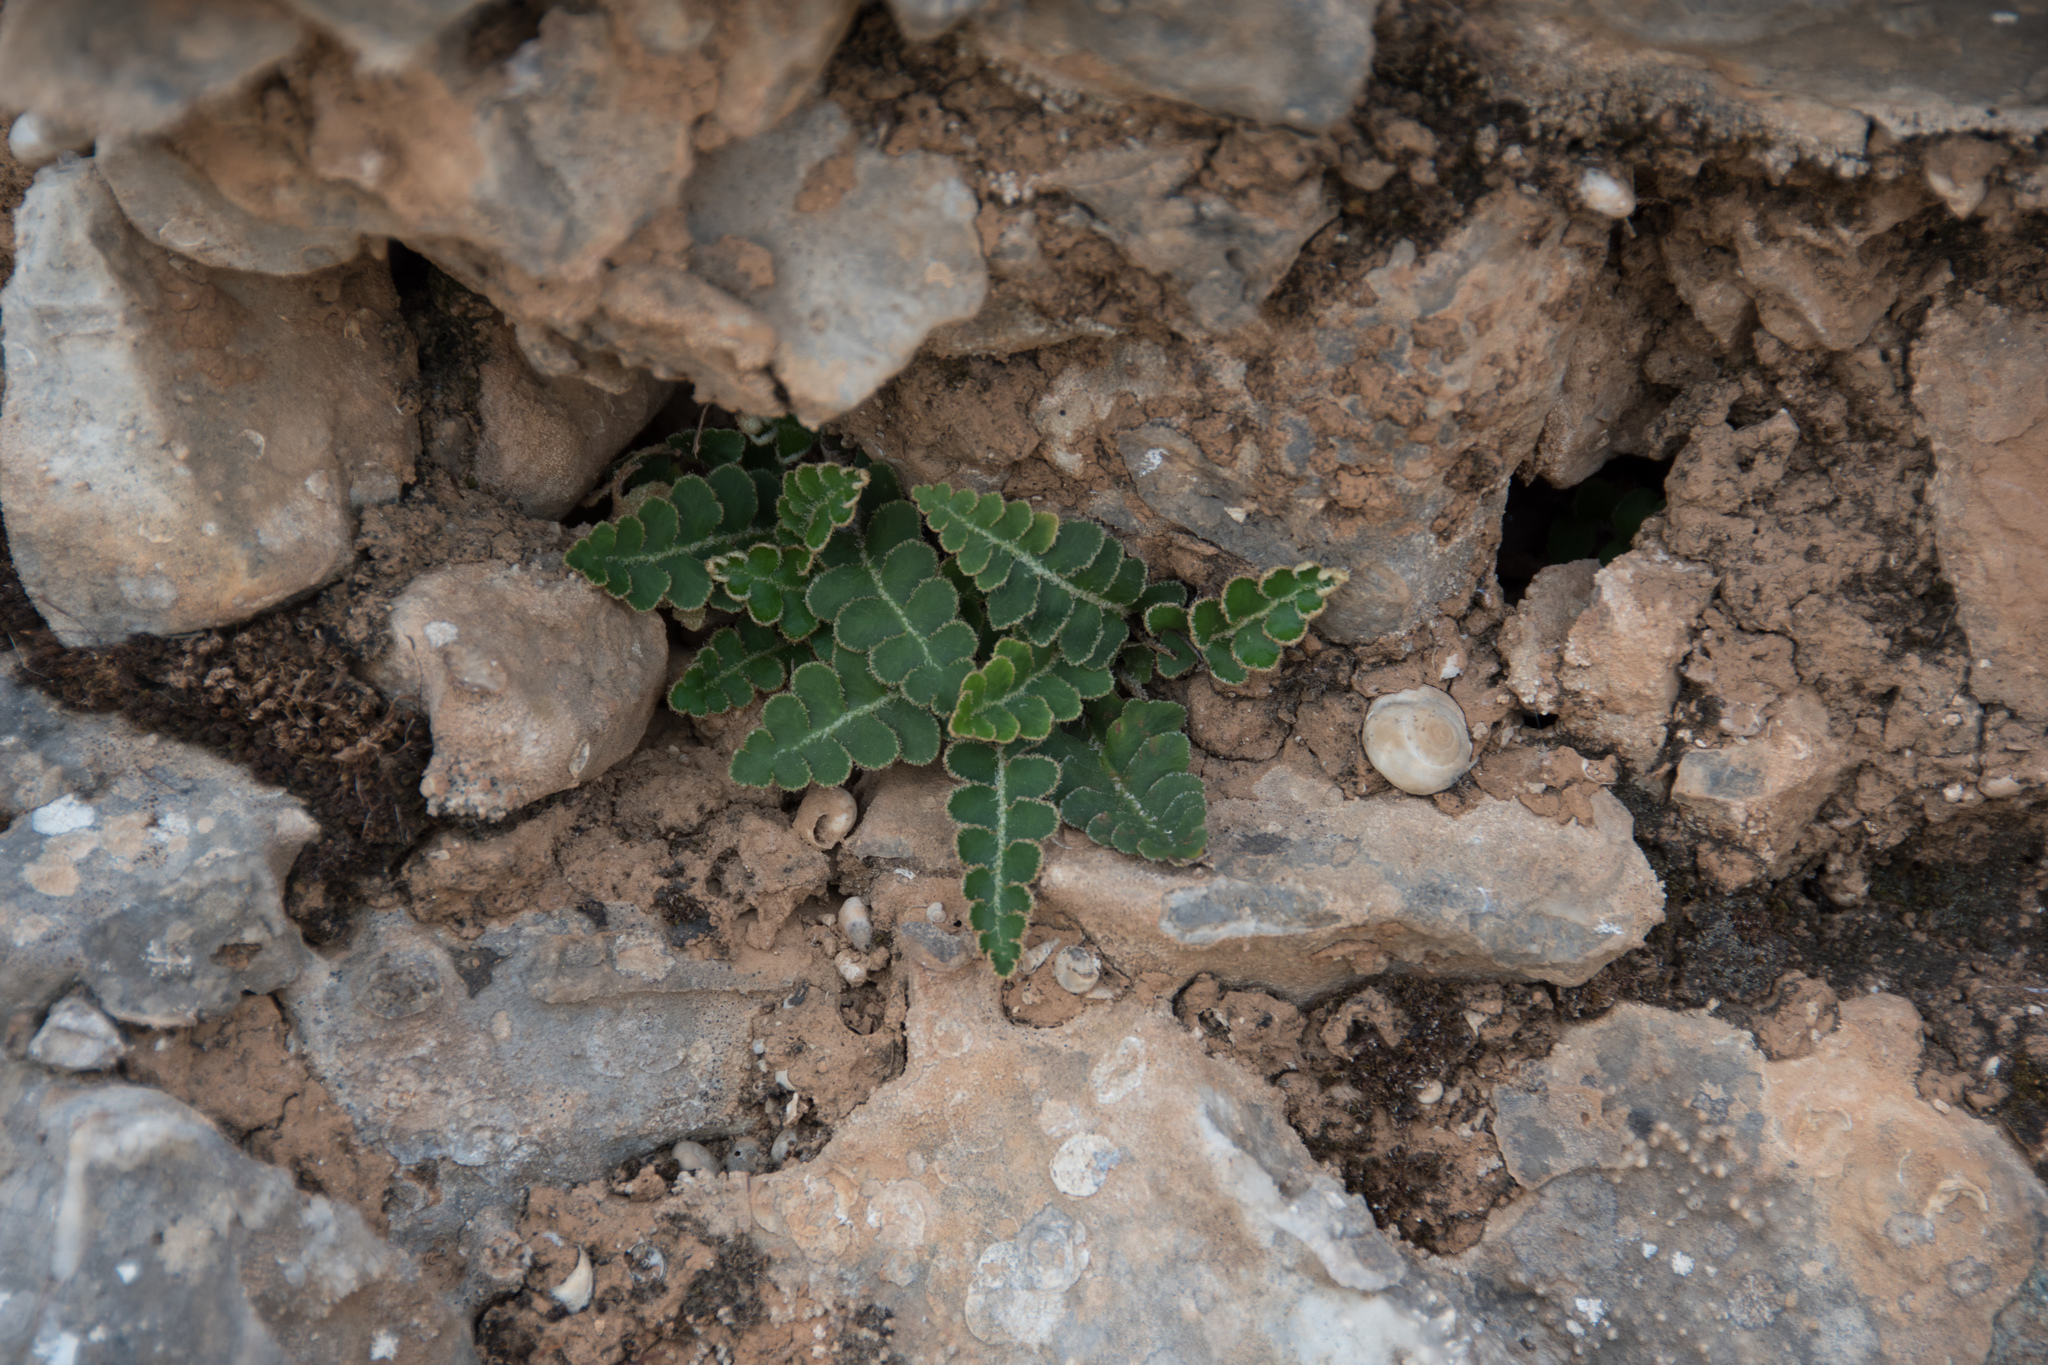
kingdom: Plantae
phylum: Tracheophyta
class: Polypodiopsida
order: Polypodiales
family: Aspleniaceae
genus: Asplenium
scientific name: Asplenium ceterach
